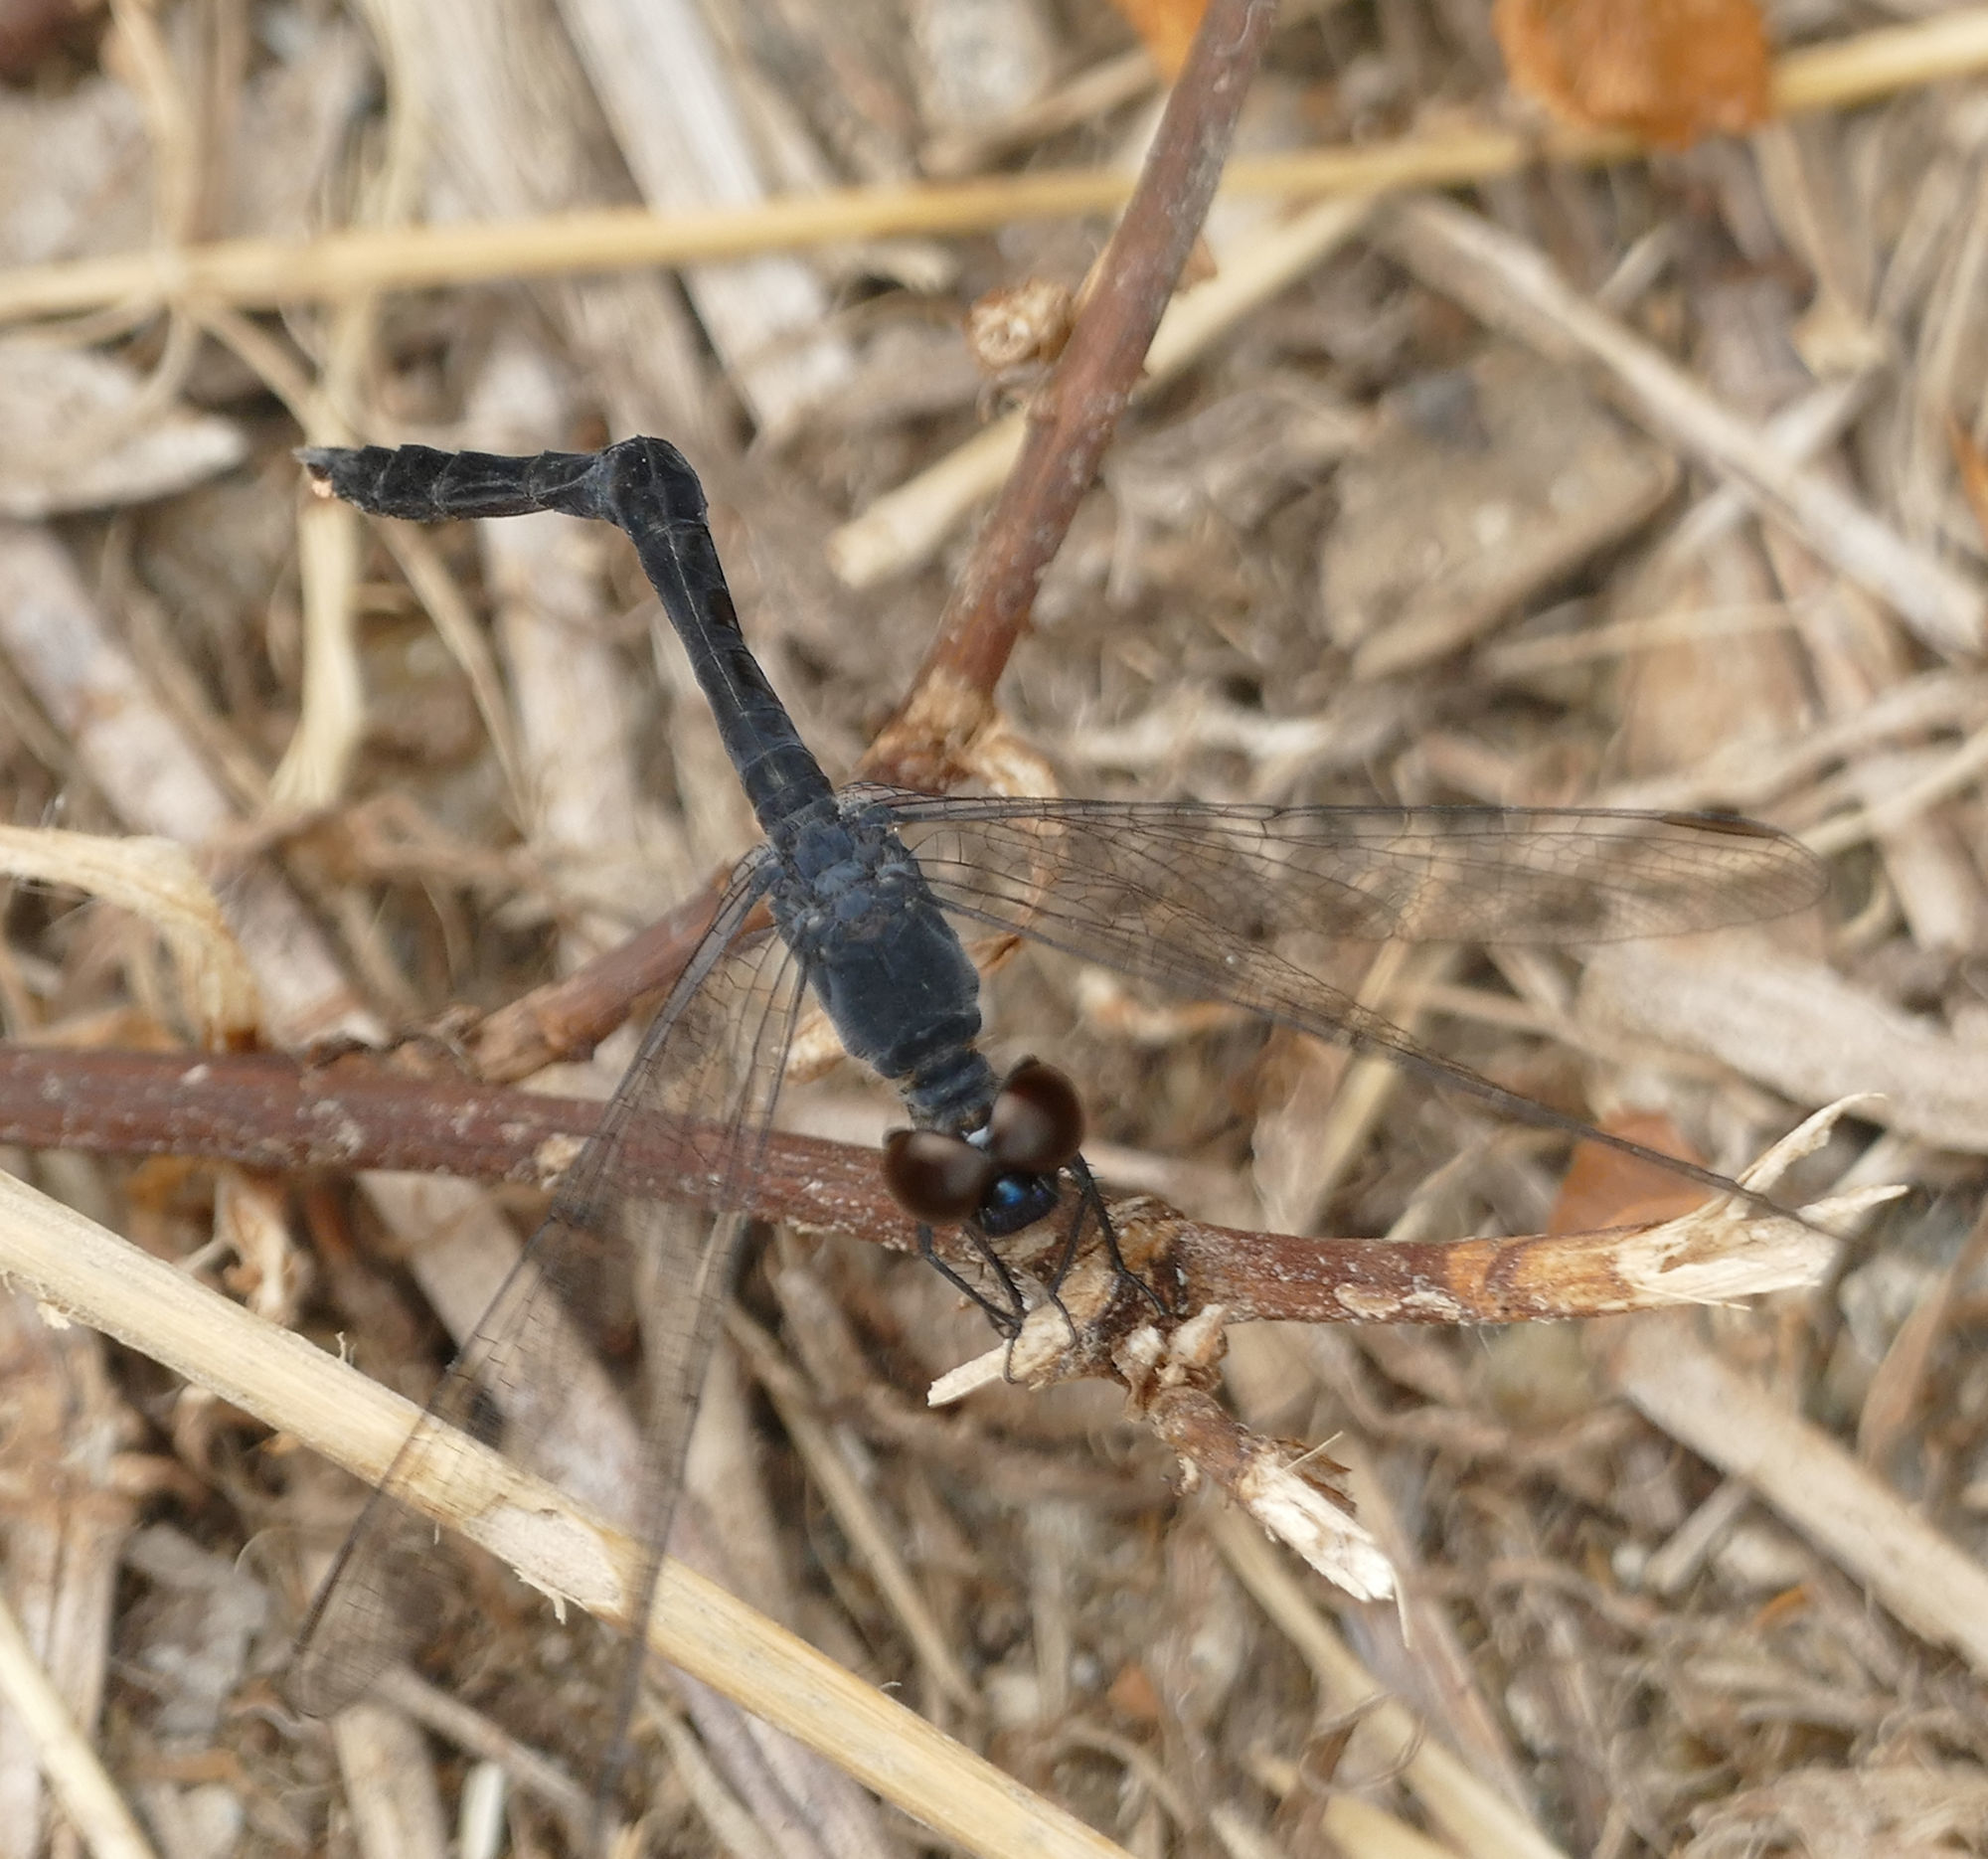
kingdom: Animalia
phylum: Arthropoda
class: Insecta
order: Odonata
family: Libellulidae
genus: Erythrodiplax
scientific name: Erythrodiplax berenice
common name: Seaside dragonlet
